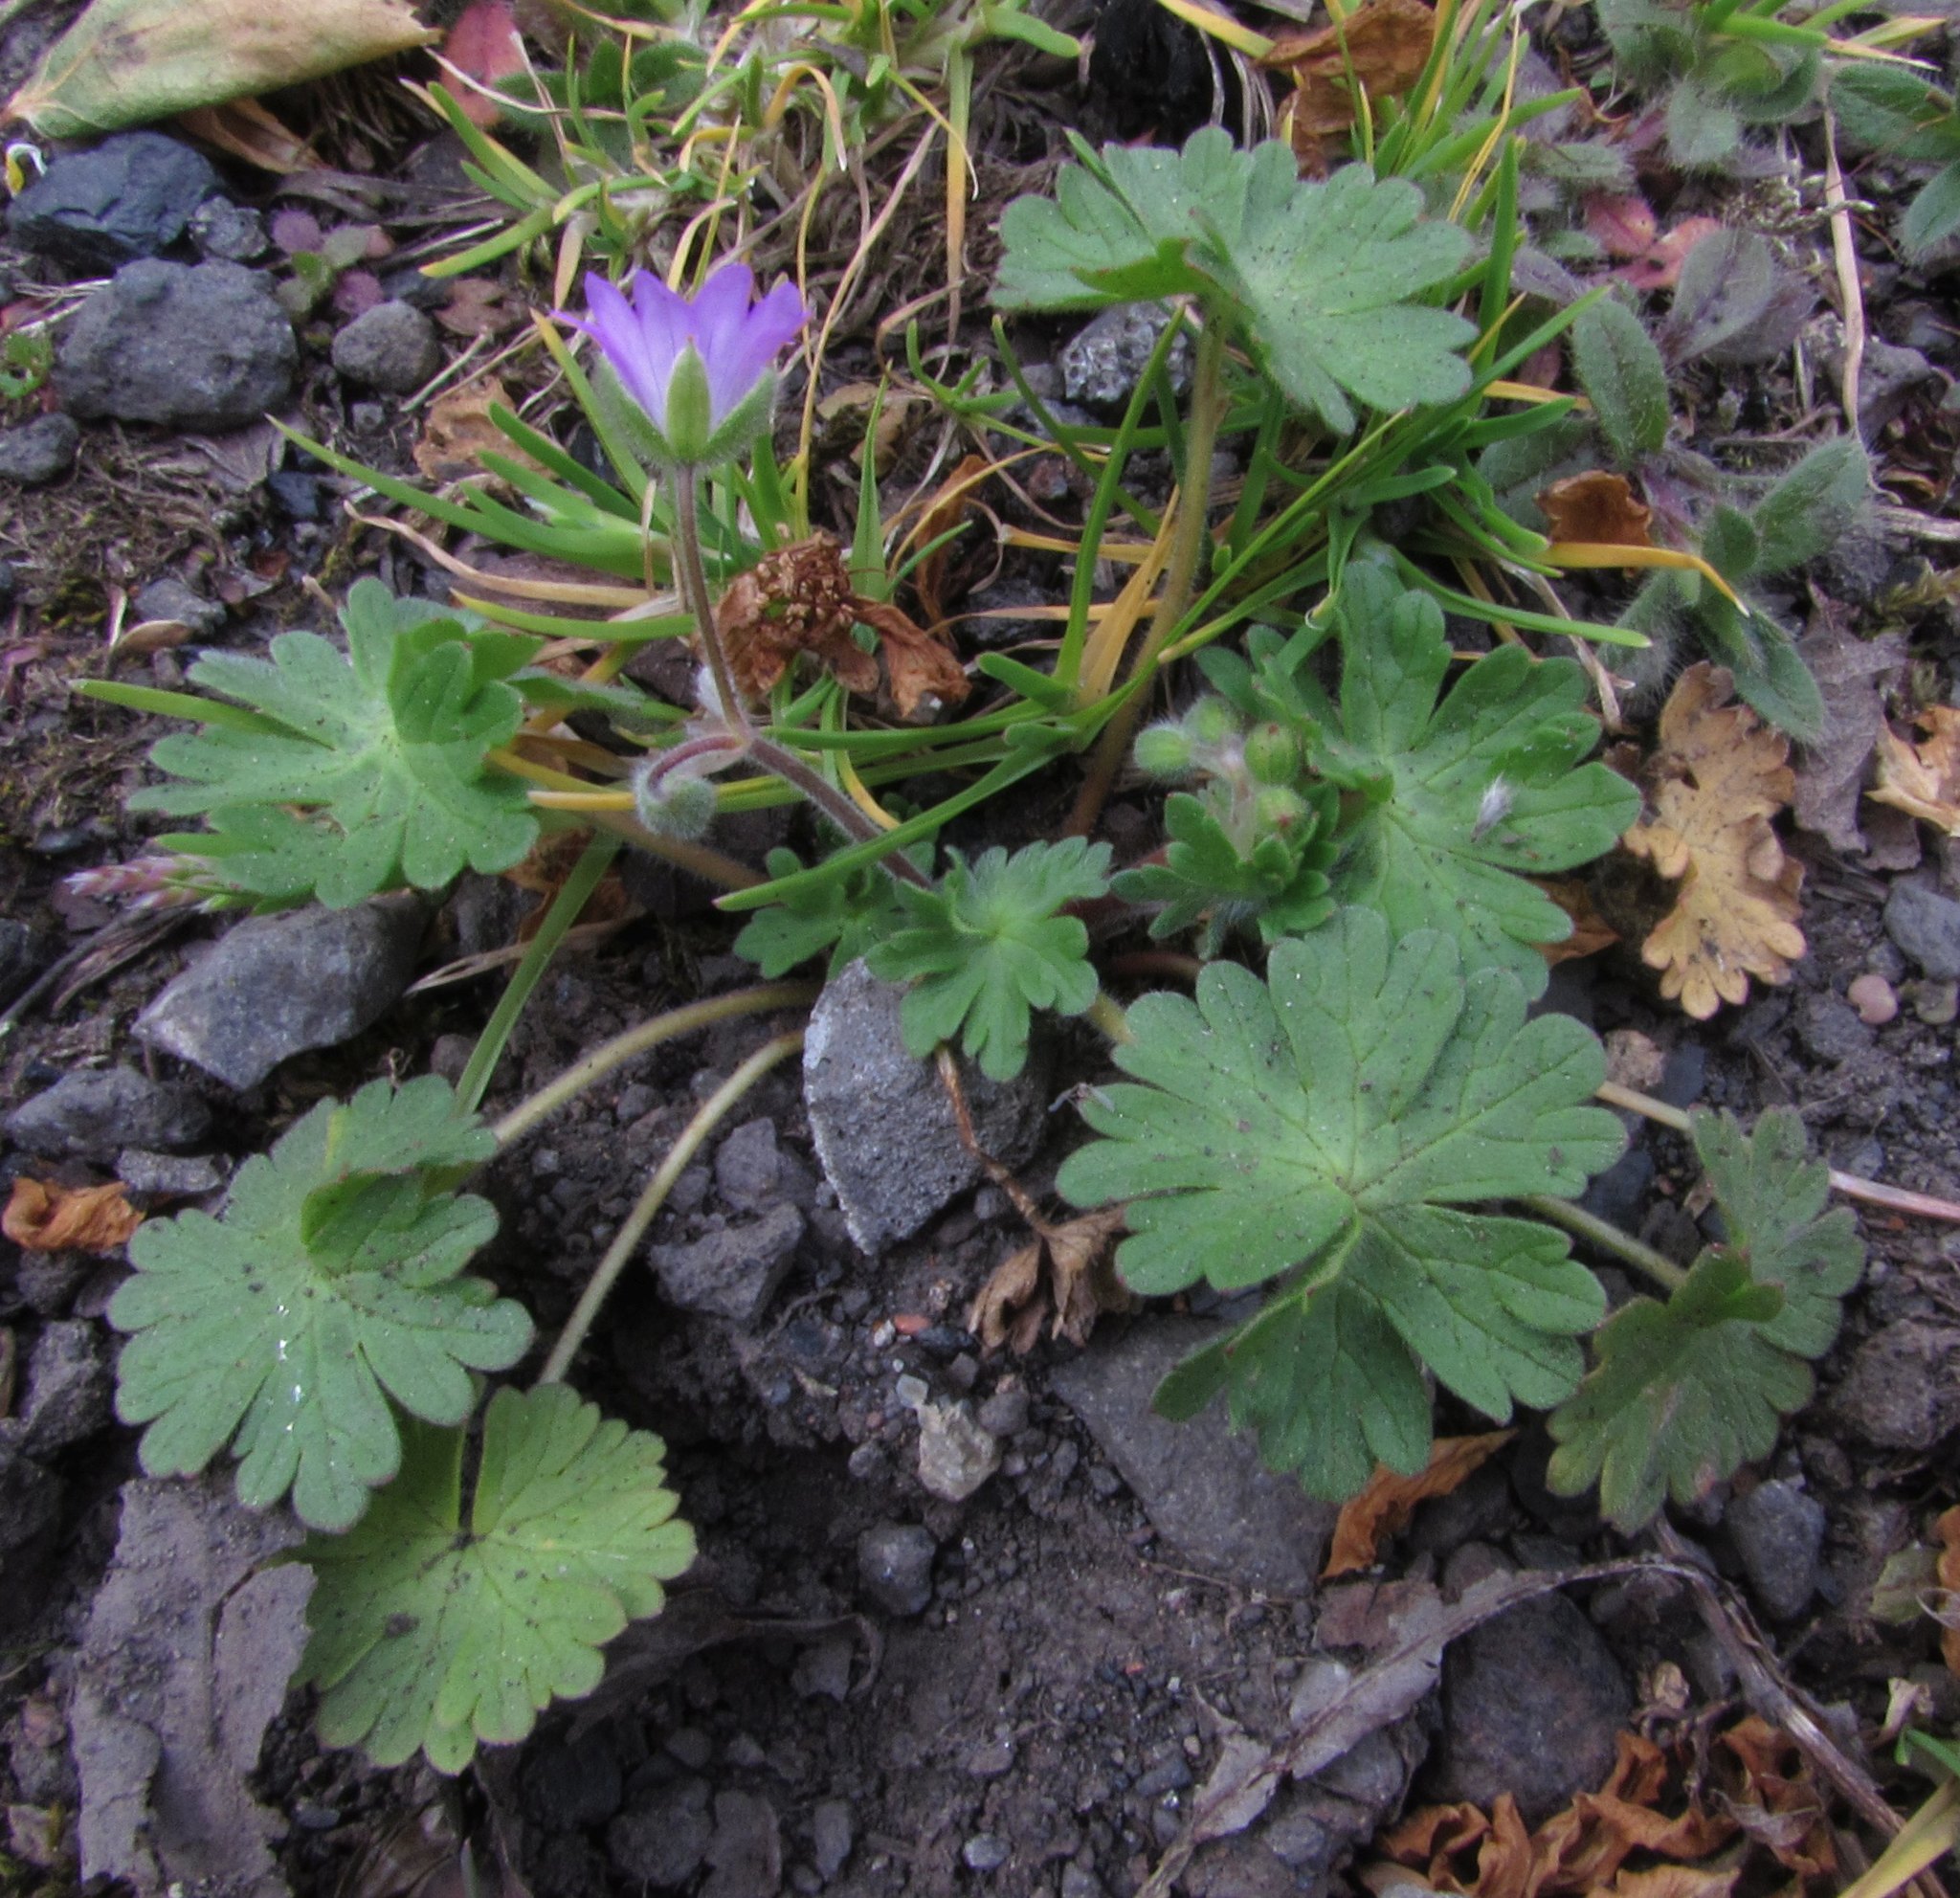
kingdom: Plantae
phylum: Tracheophyta
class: Magnoliopsida
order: Geraniales
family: Geraniaceae
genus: Geranium
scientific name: Geranium molle
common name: Dove's-foot crane's-bill
